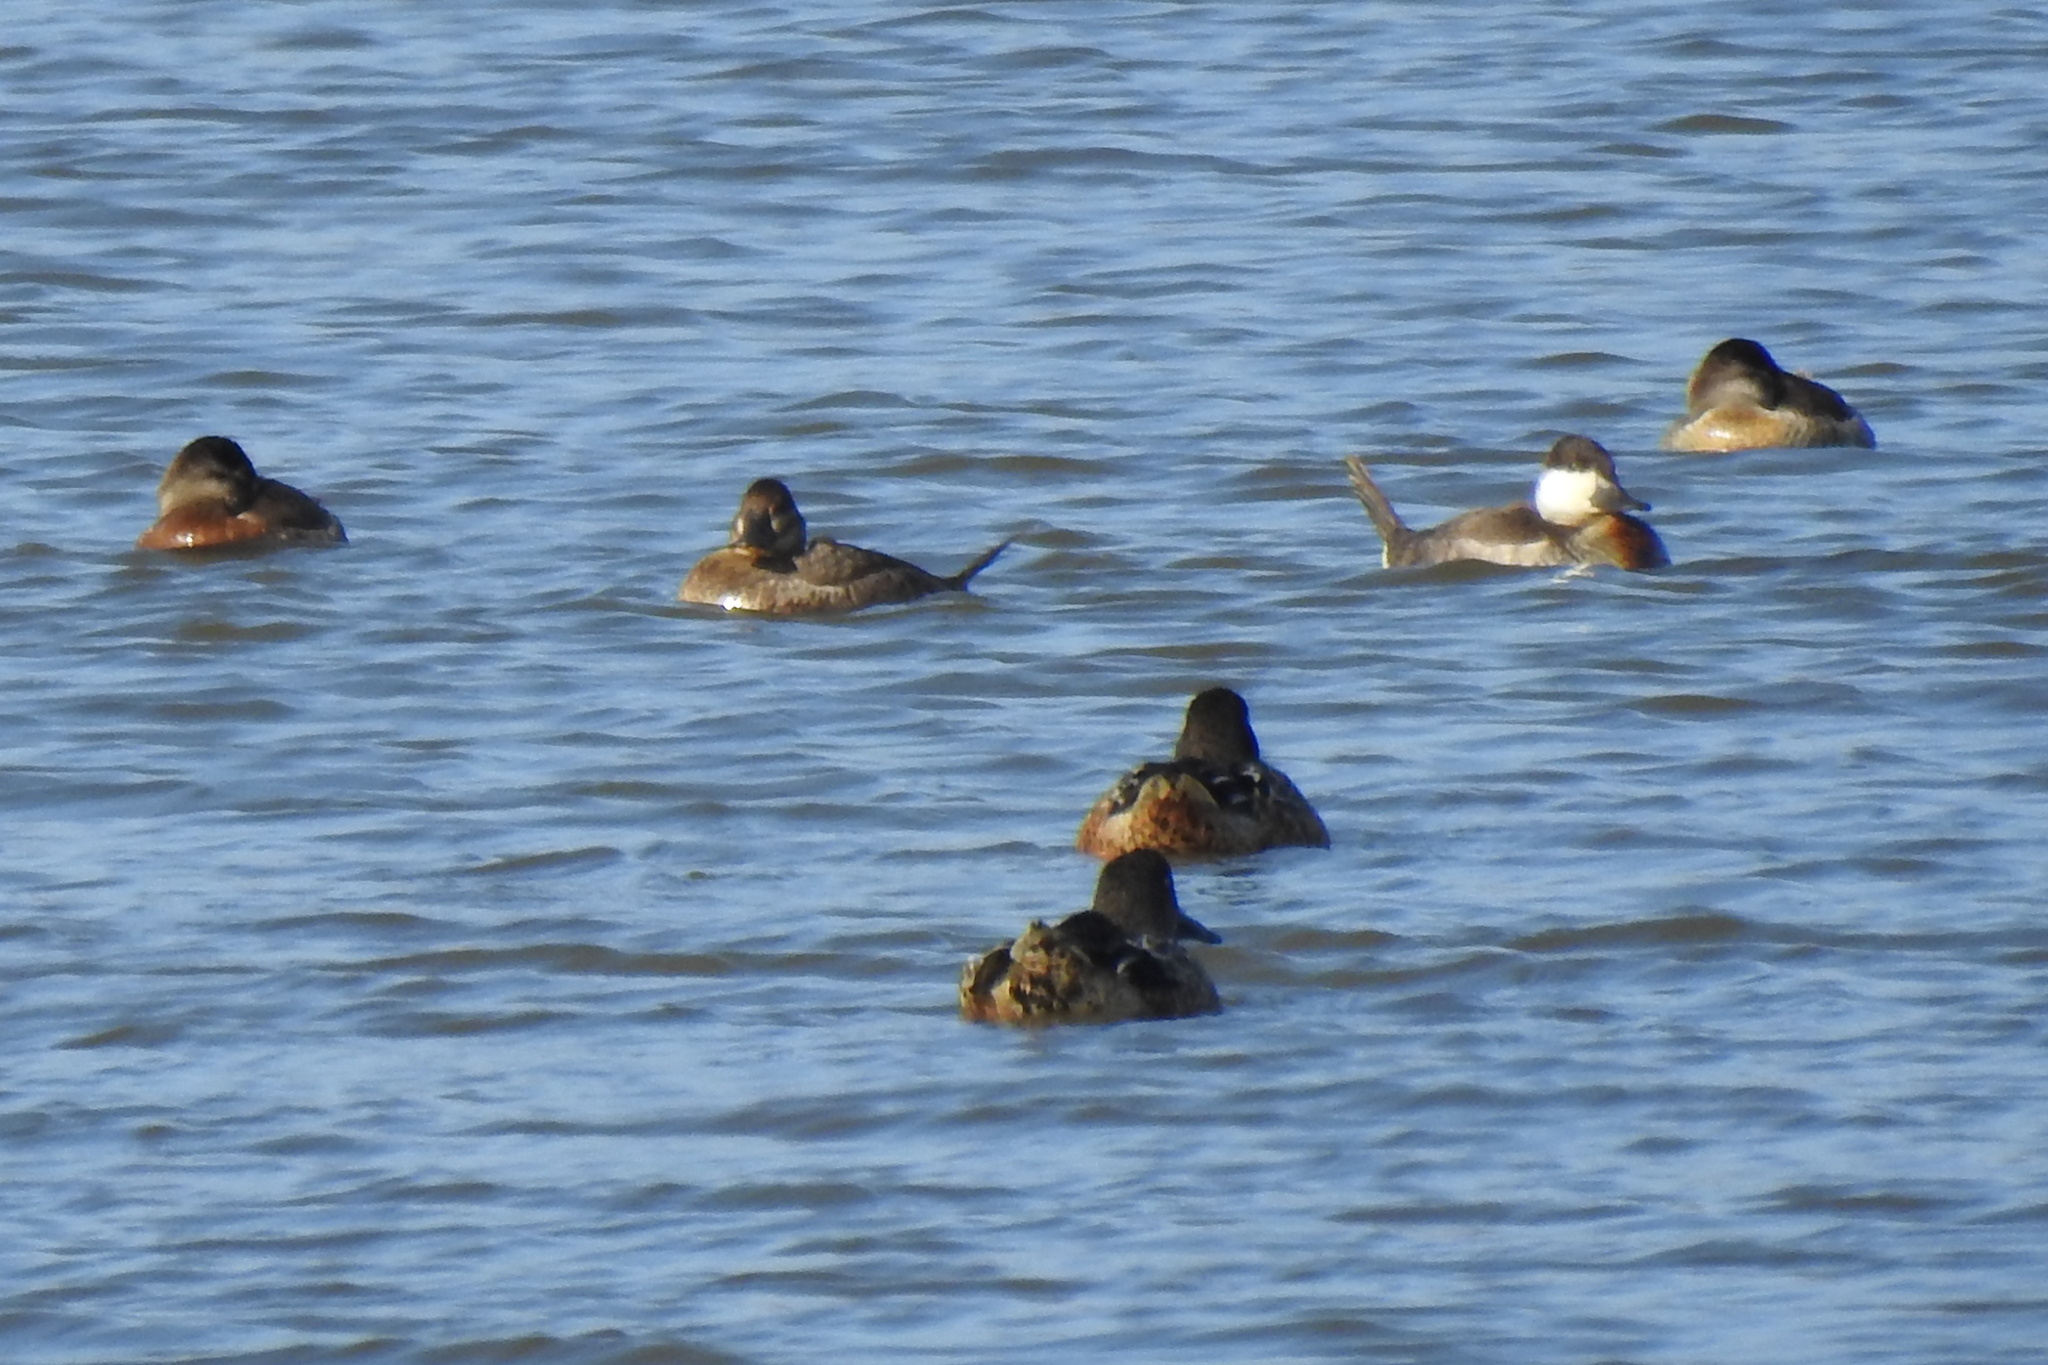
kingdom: Animalia
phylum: Chordata
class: Aves
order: Anseriformes
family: Anatidae
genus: Oxyura
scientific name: Oxyura jamaicensis
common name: Ruddy duck
